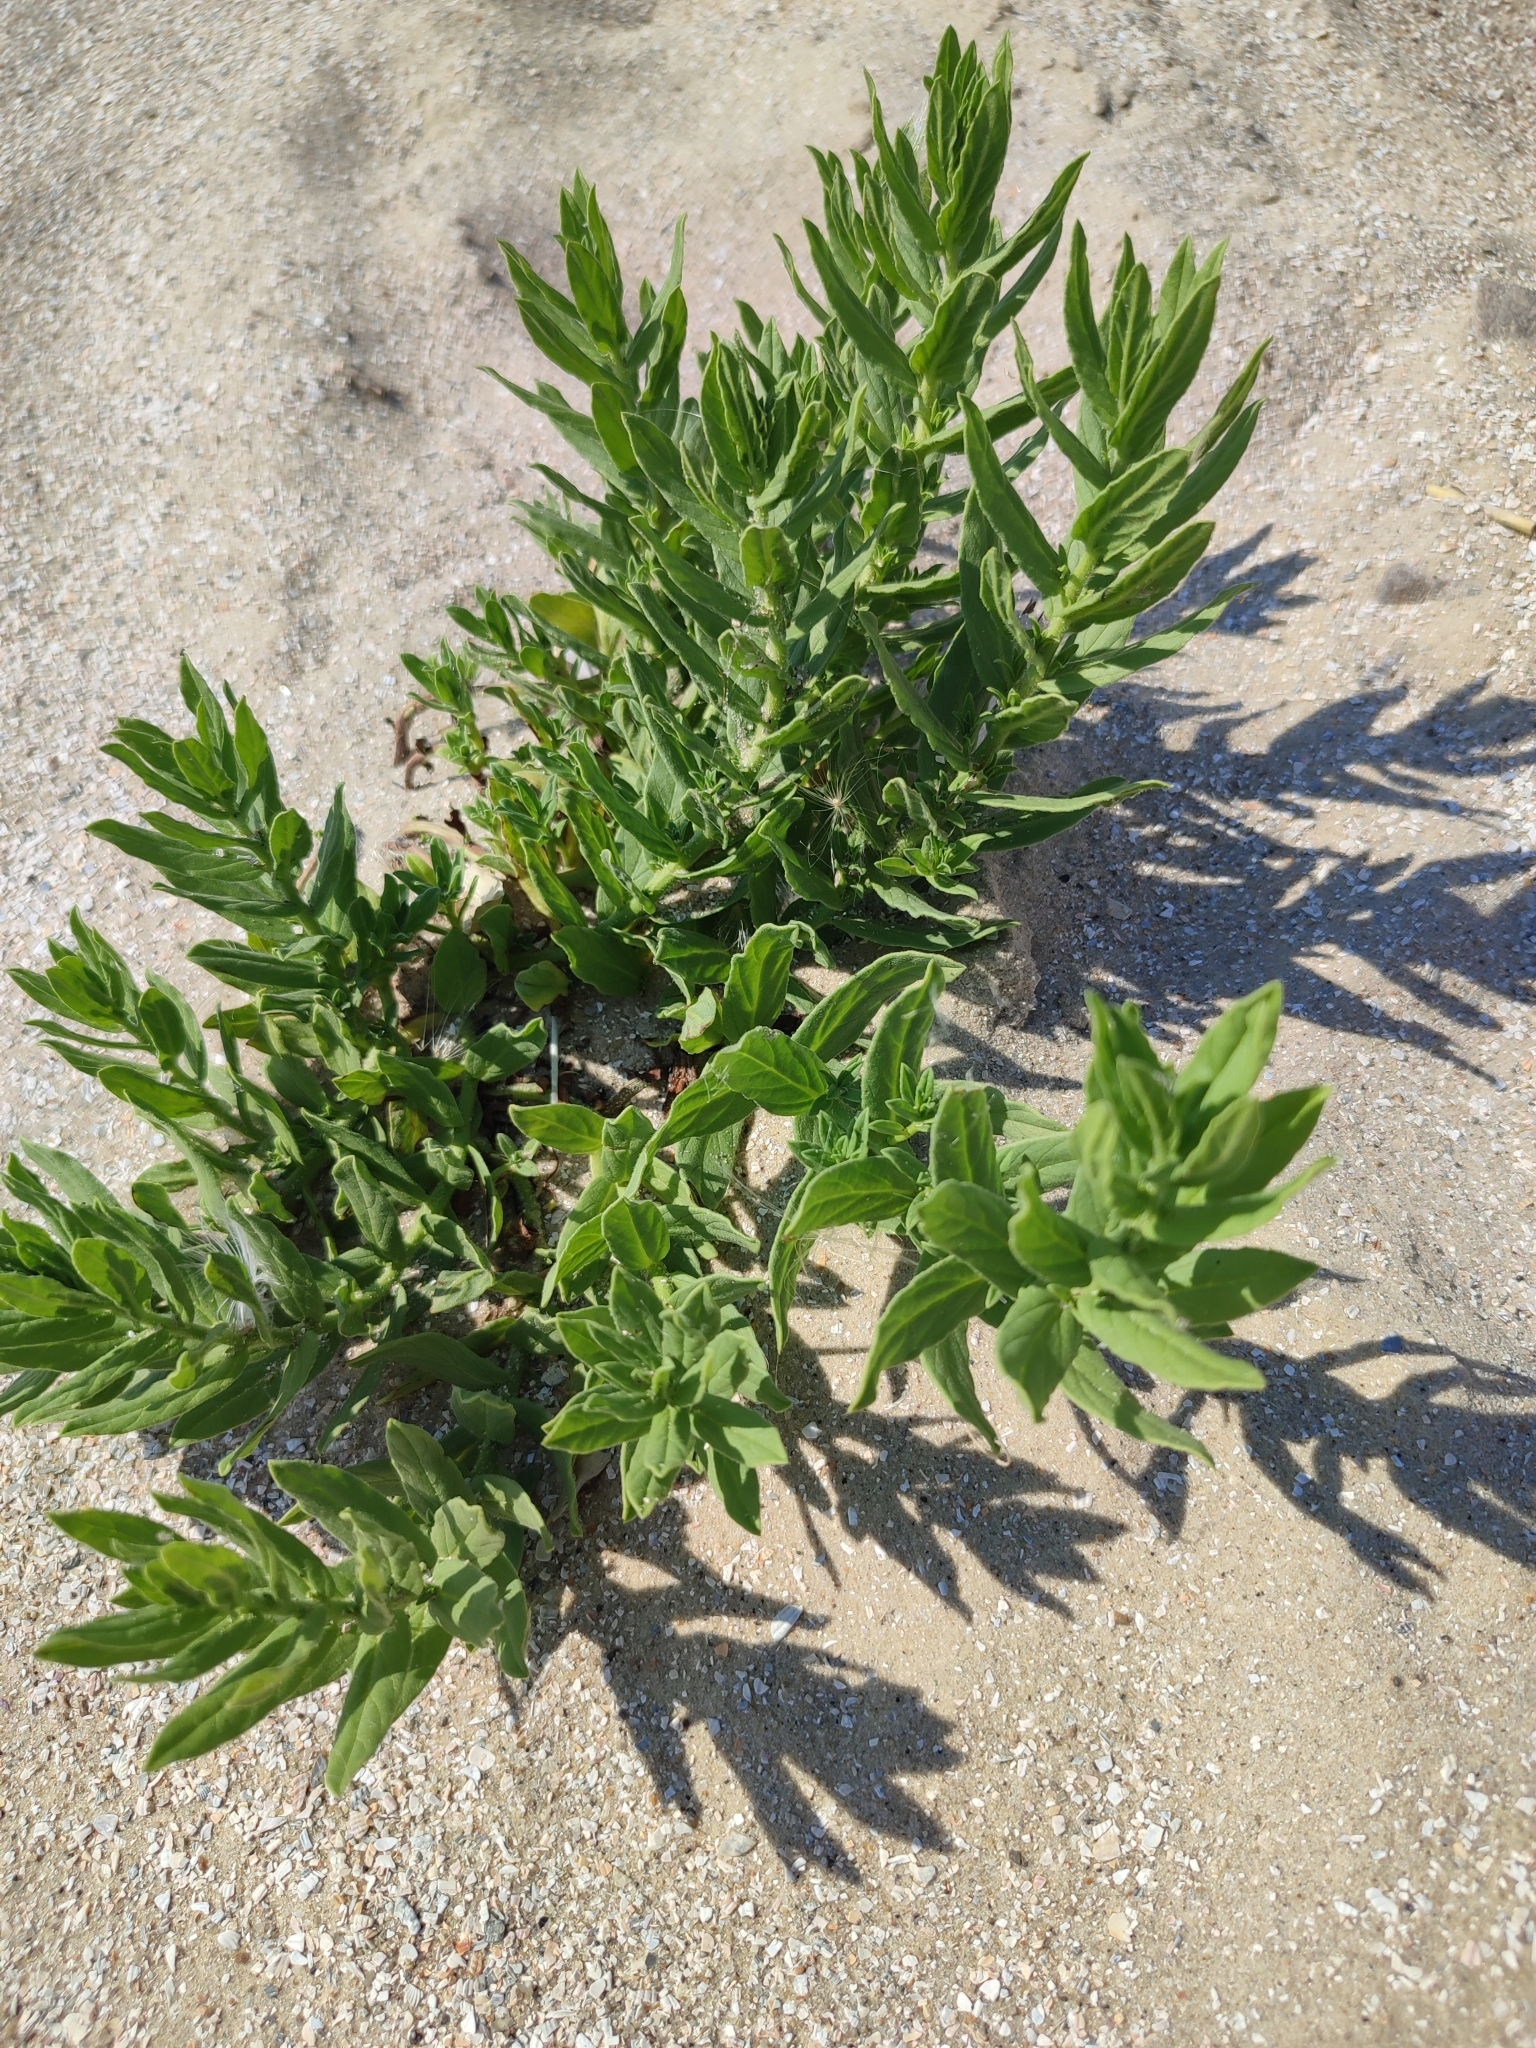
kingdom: Plantae
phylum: Tracheophyta
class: Magnoliopsida
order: Boraginales
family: Heliotropiaceae
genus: Tournefortia
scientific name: Tournefortia sibirica
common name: Siberian sea rosemary
